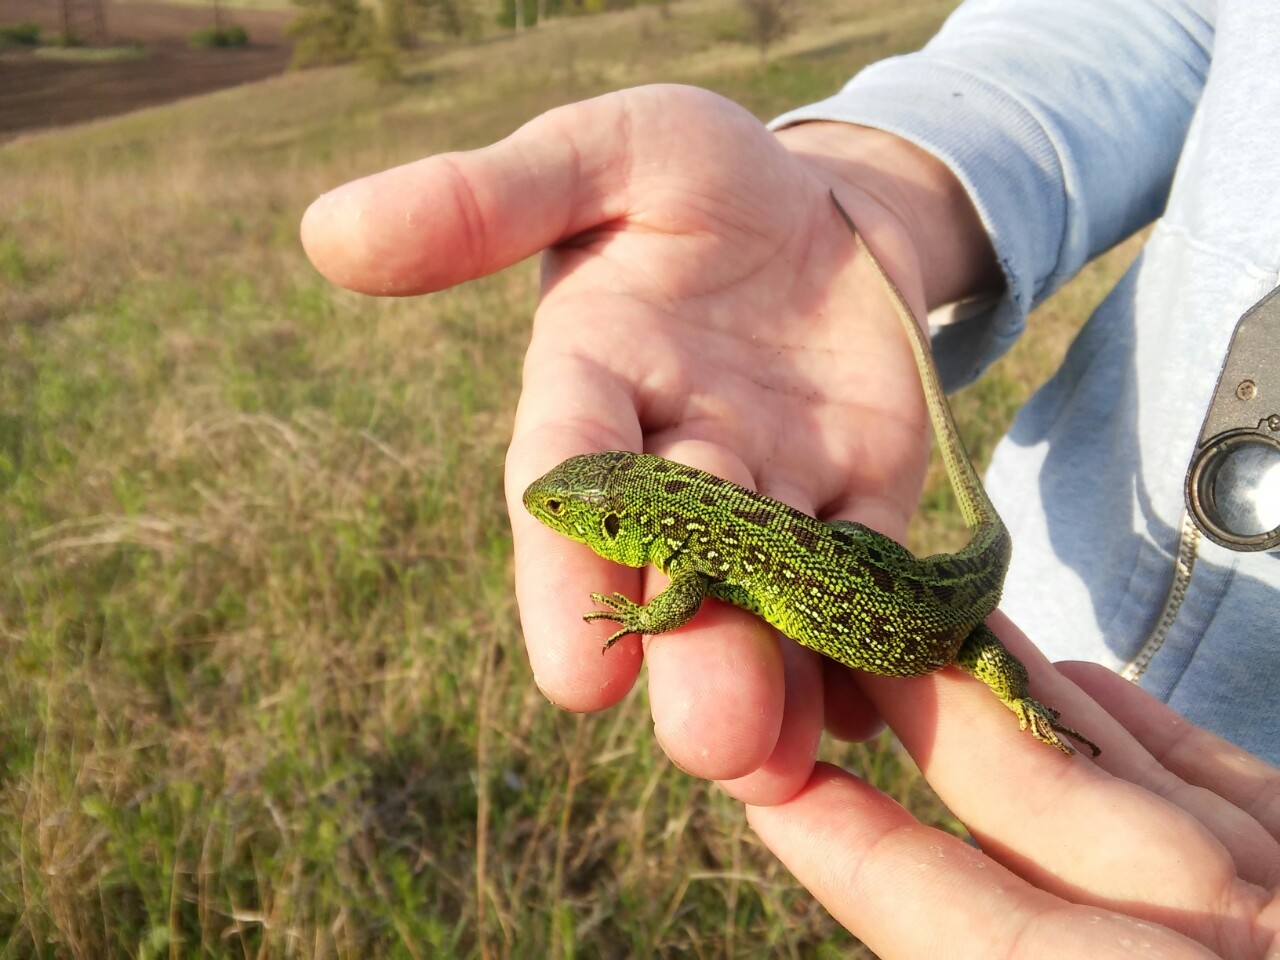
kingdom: Animalia
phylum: Chordata
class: Squamata
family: Lacertidae
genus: Lacerta
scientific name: Lacerta agilis
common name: Sand lizard
